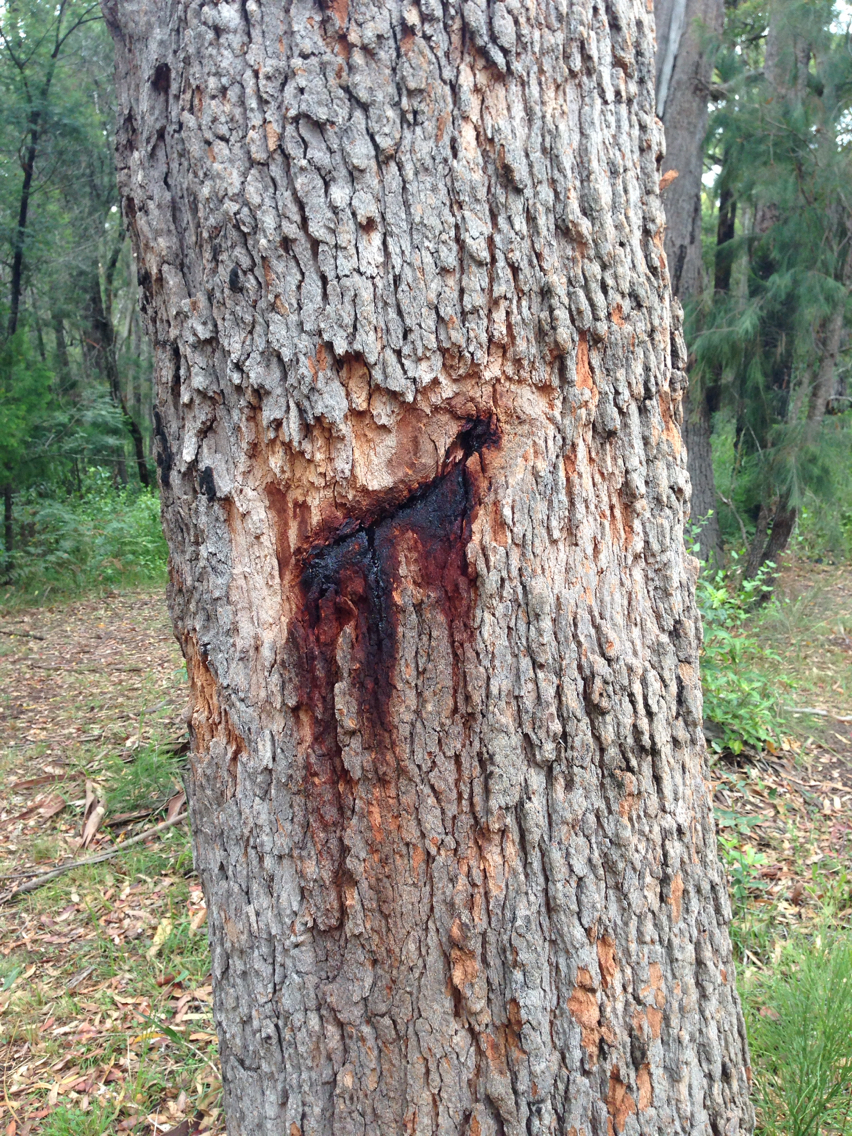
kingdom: Plantae
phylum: Tracheophyta
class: Magnoliopsida
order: Myrtales
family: Myrtaceae
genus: Corymbia
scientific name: Corymbia gummifera
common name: Red bloodwood
